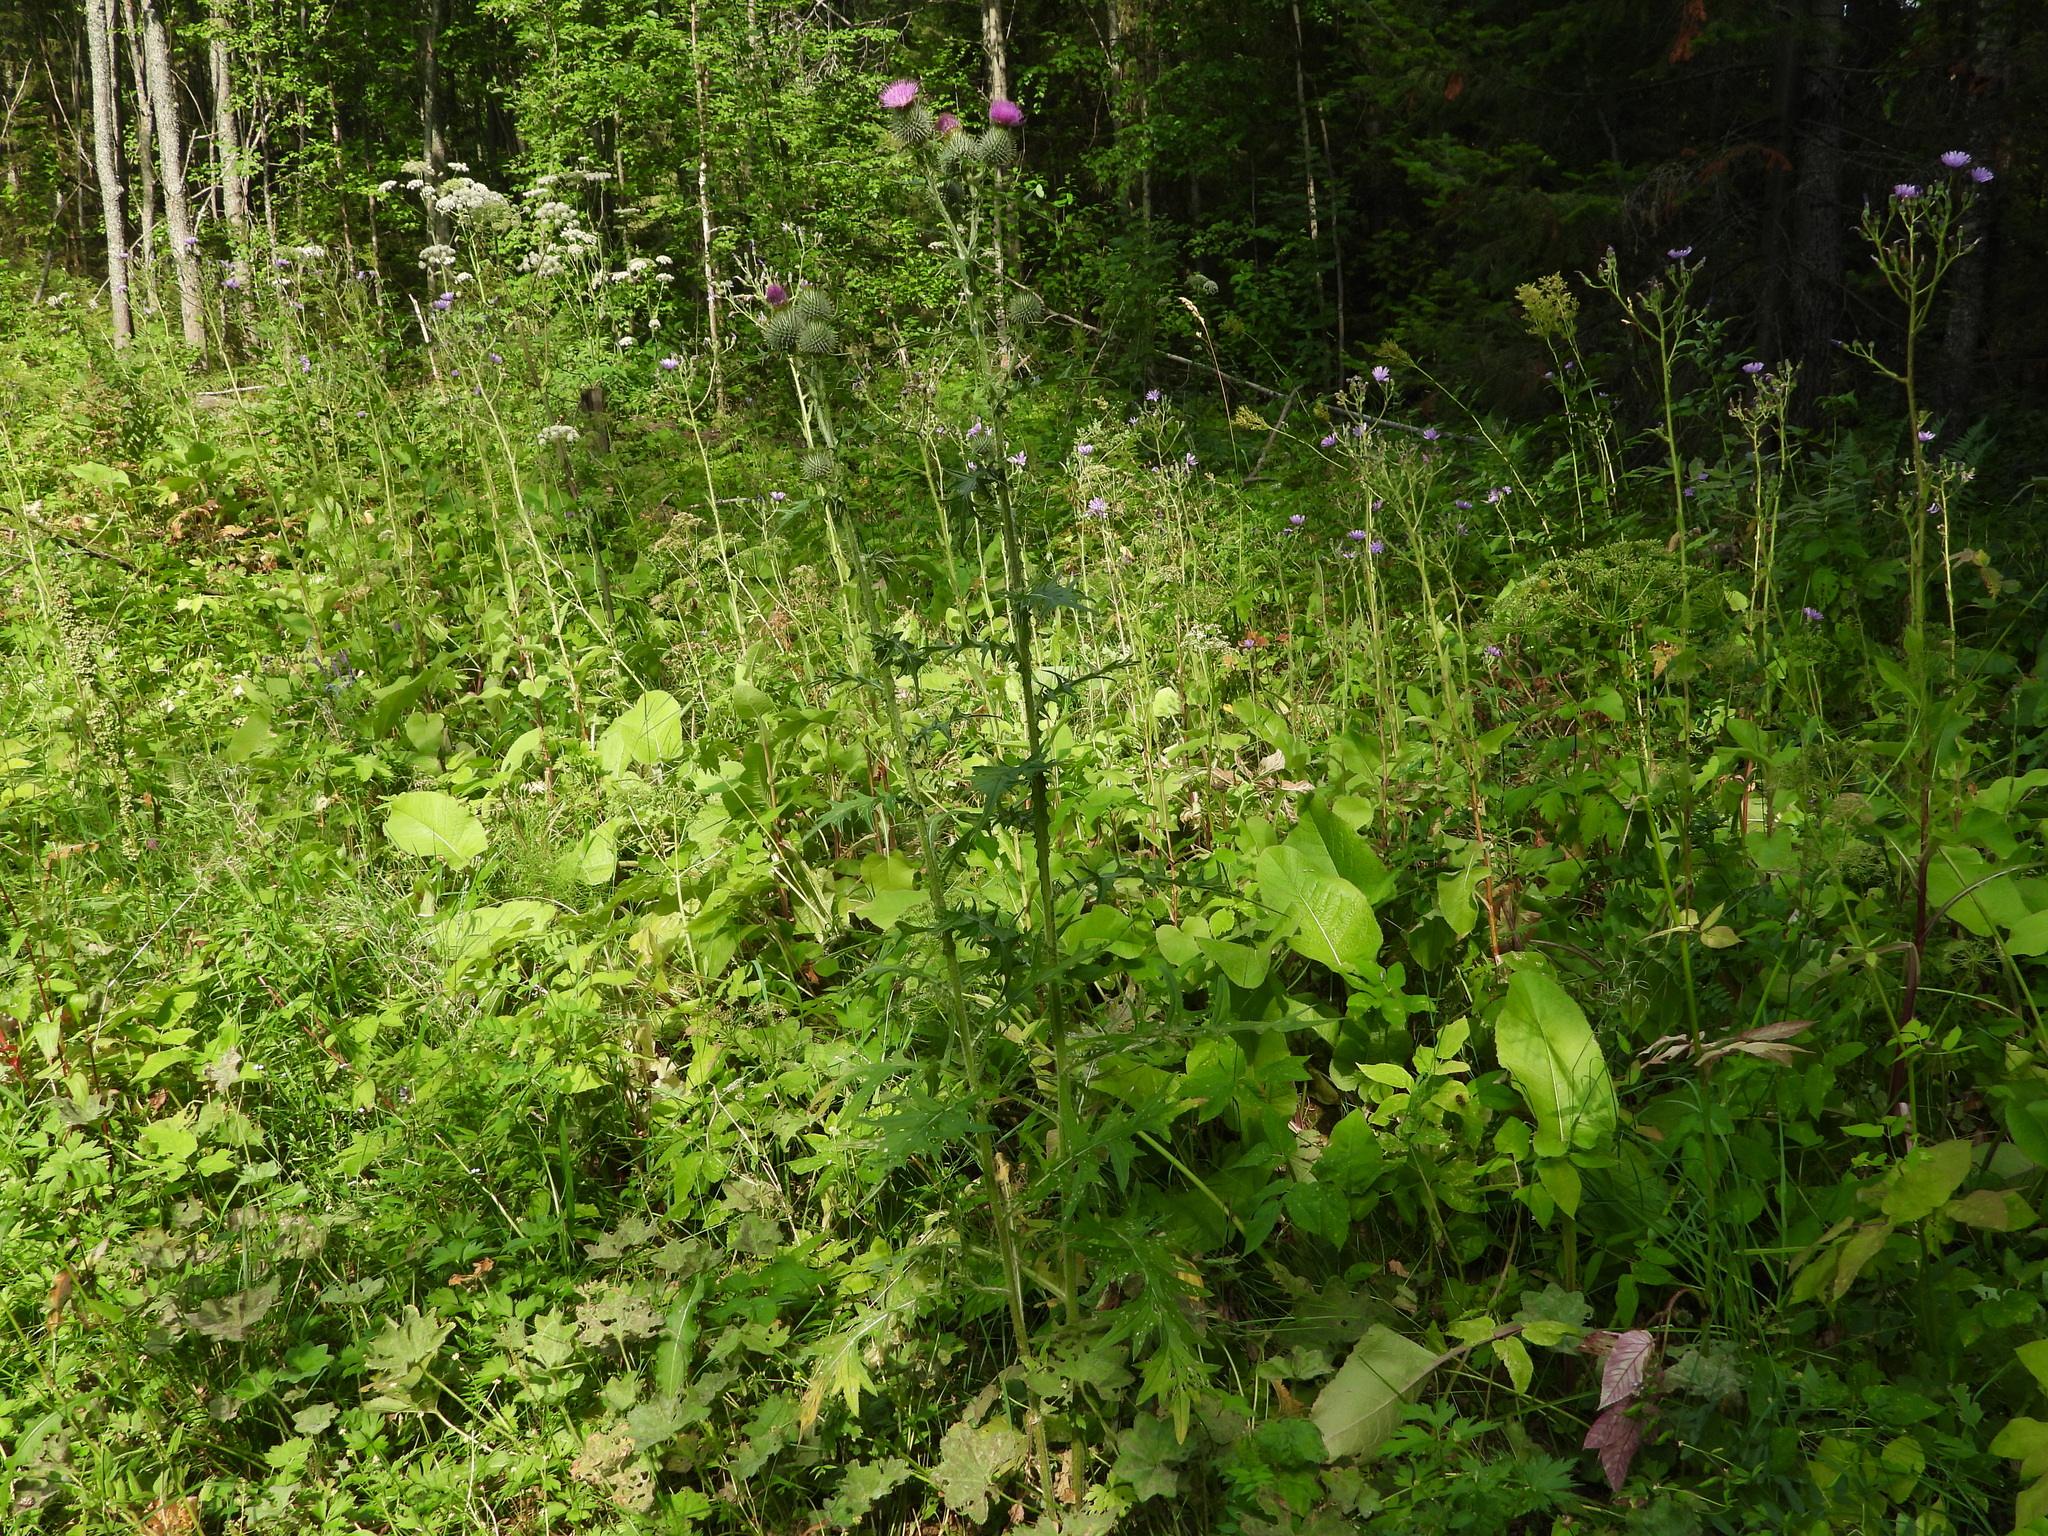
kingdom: Plantae
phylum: Tracheophyta
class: Magnoliopsida
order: Asterales
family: Asteraceae
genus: Cirsium
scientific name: Cirsium vulgare
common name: Bull thistle
